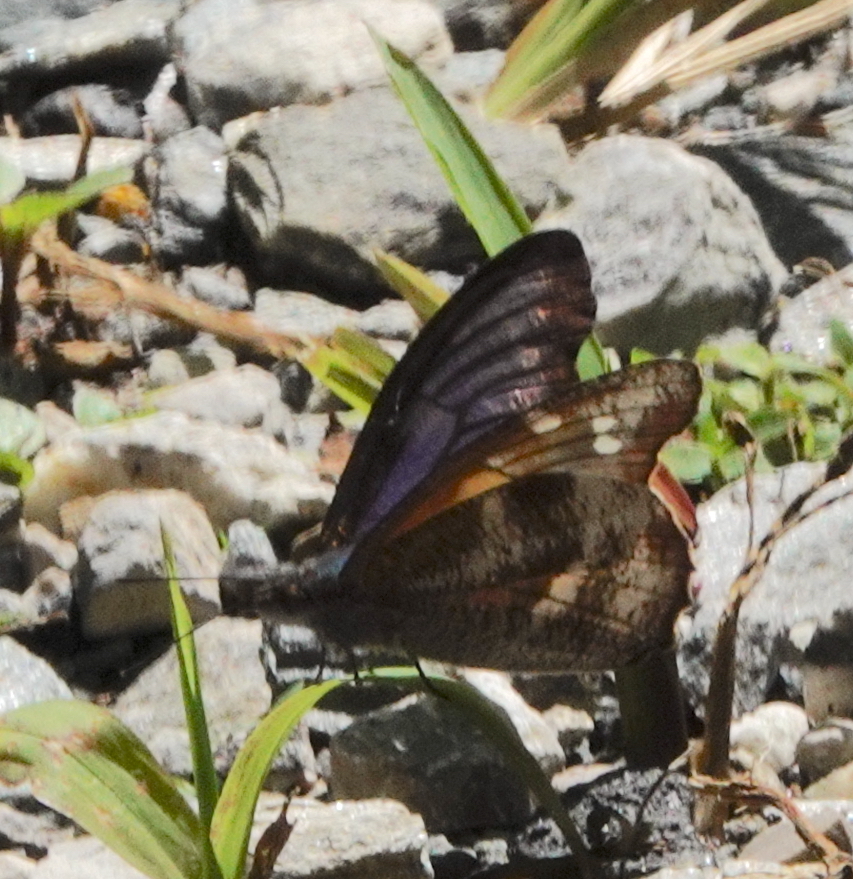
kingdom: Animalia
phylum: Arthropoda
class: Insecta
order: Lepidoptera
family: Nymphalidae
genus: Libythea
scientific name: Libythea geoffroy
